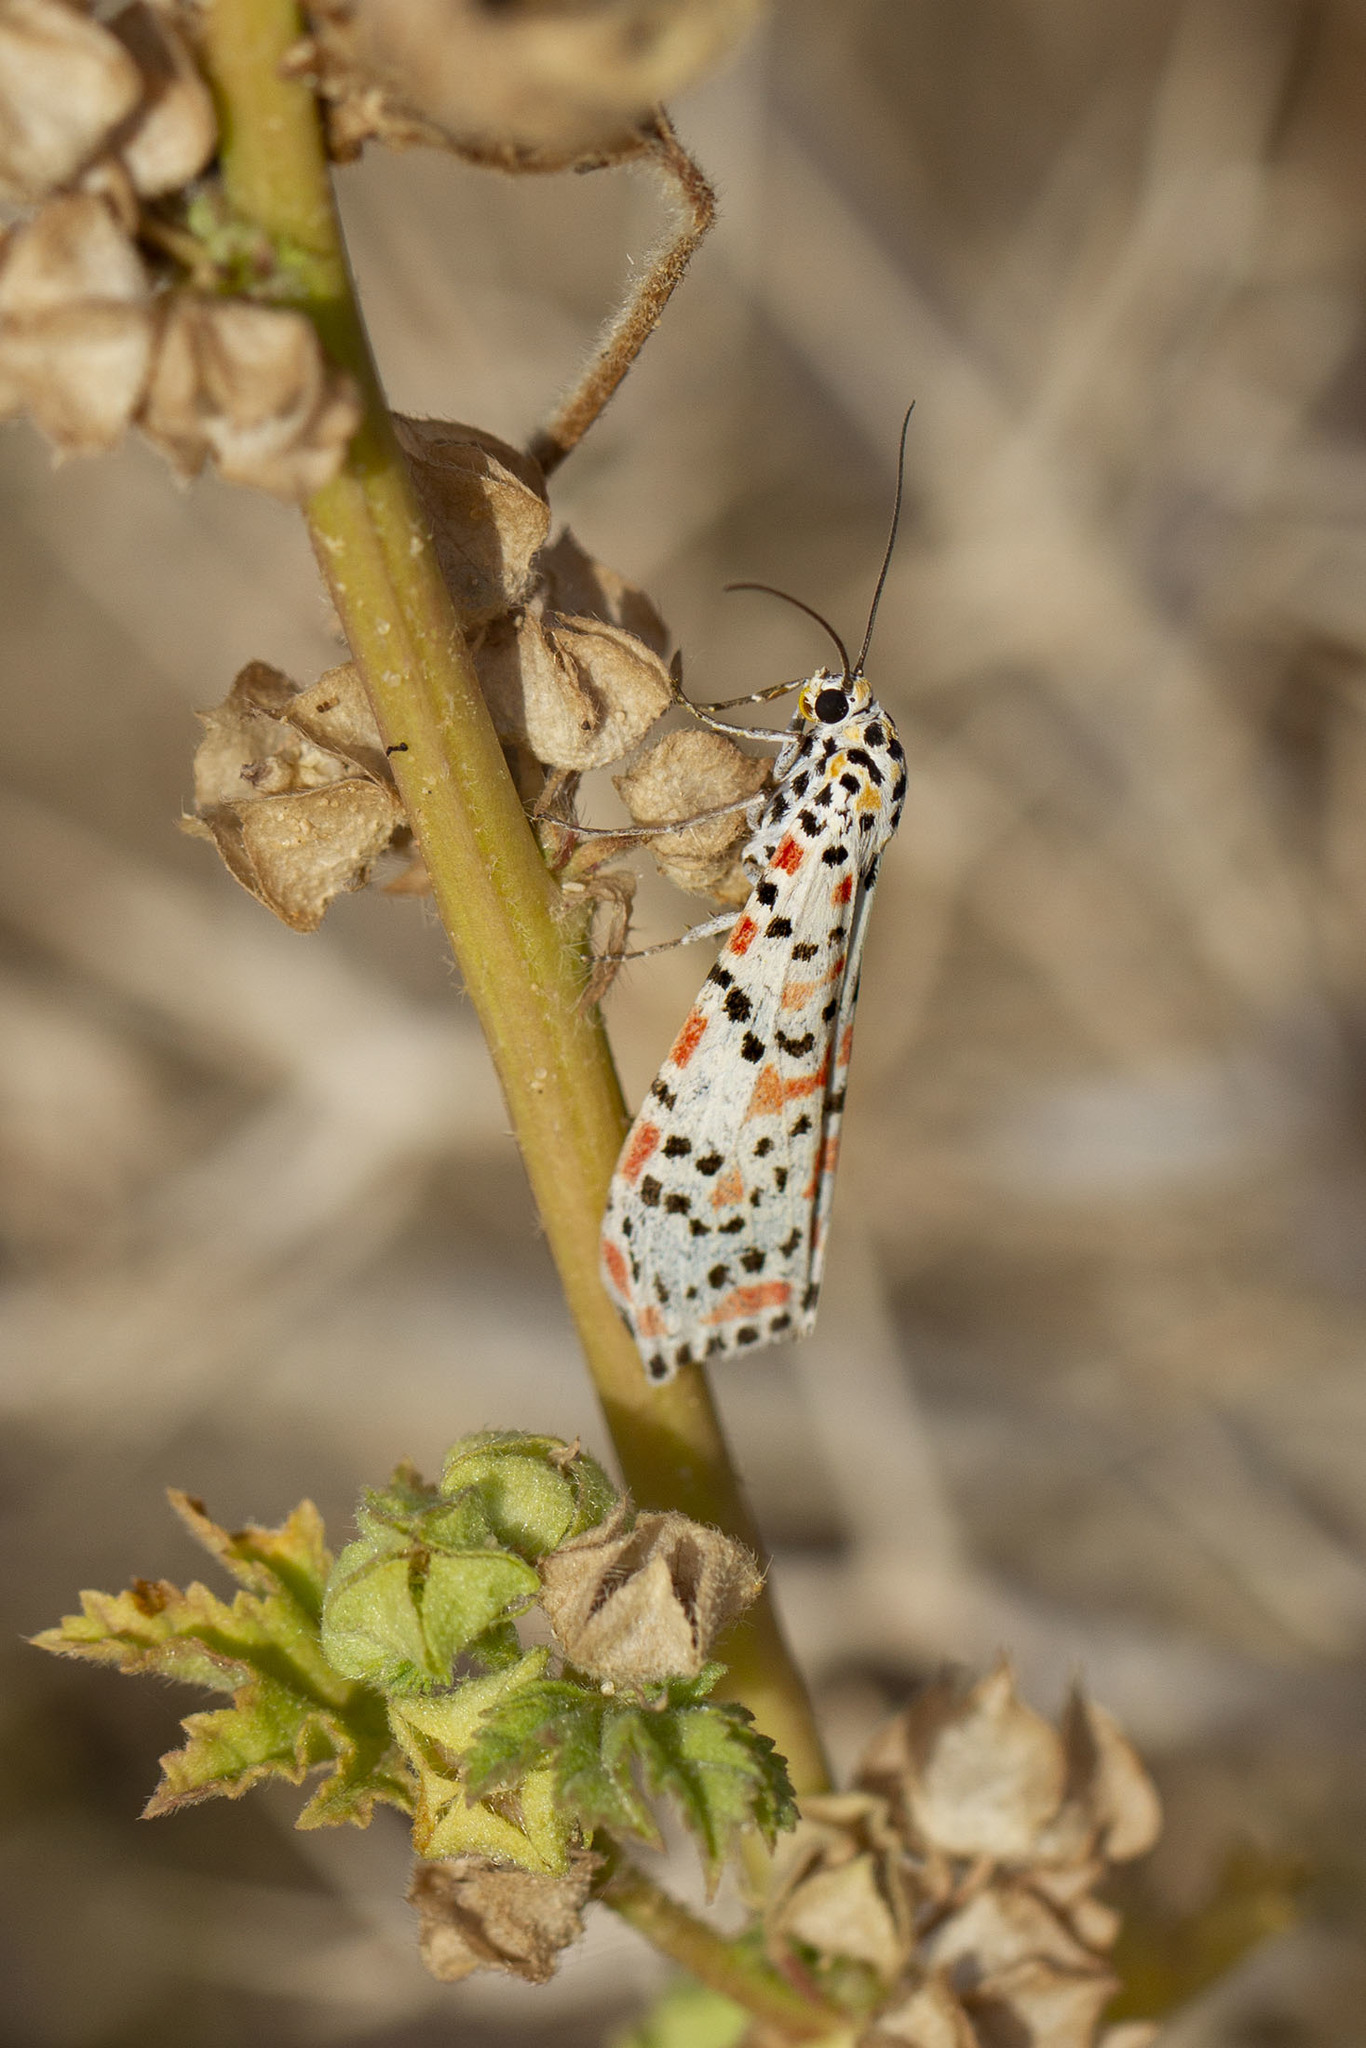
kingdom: Animalia
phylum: Arthropoda
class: Insecta
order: Lepidoptera
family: Erebidae
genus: Utetheisa
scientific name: Utetheisa pulchella
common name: Crimson speckled
